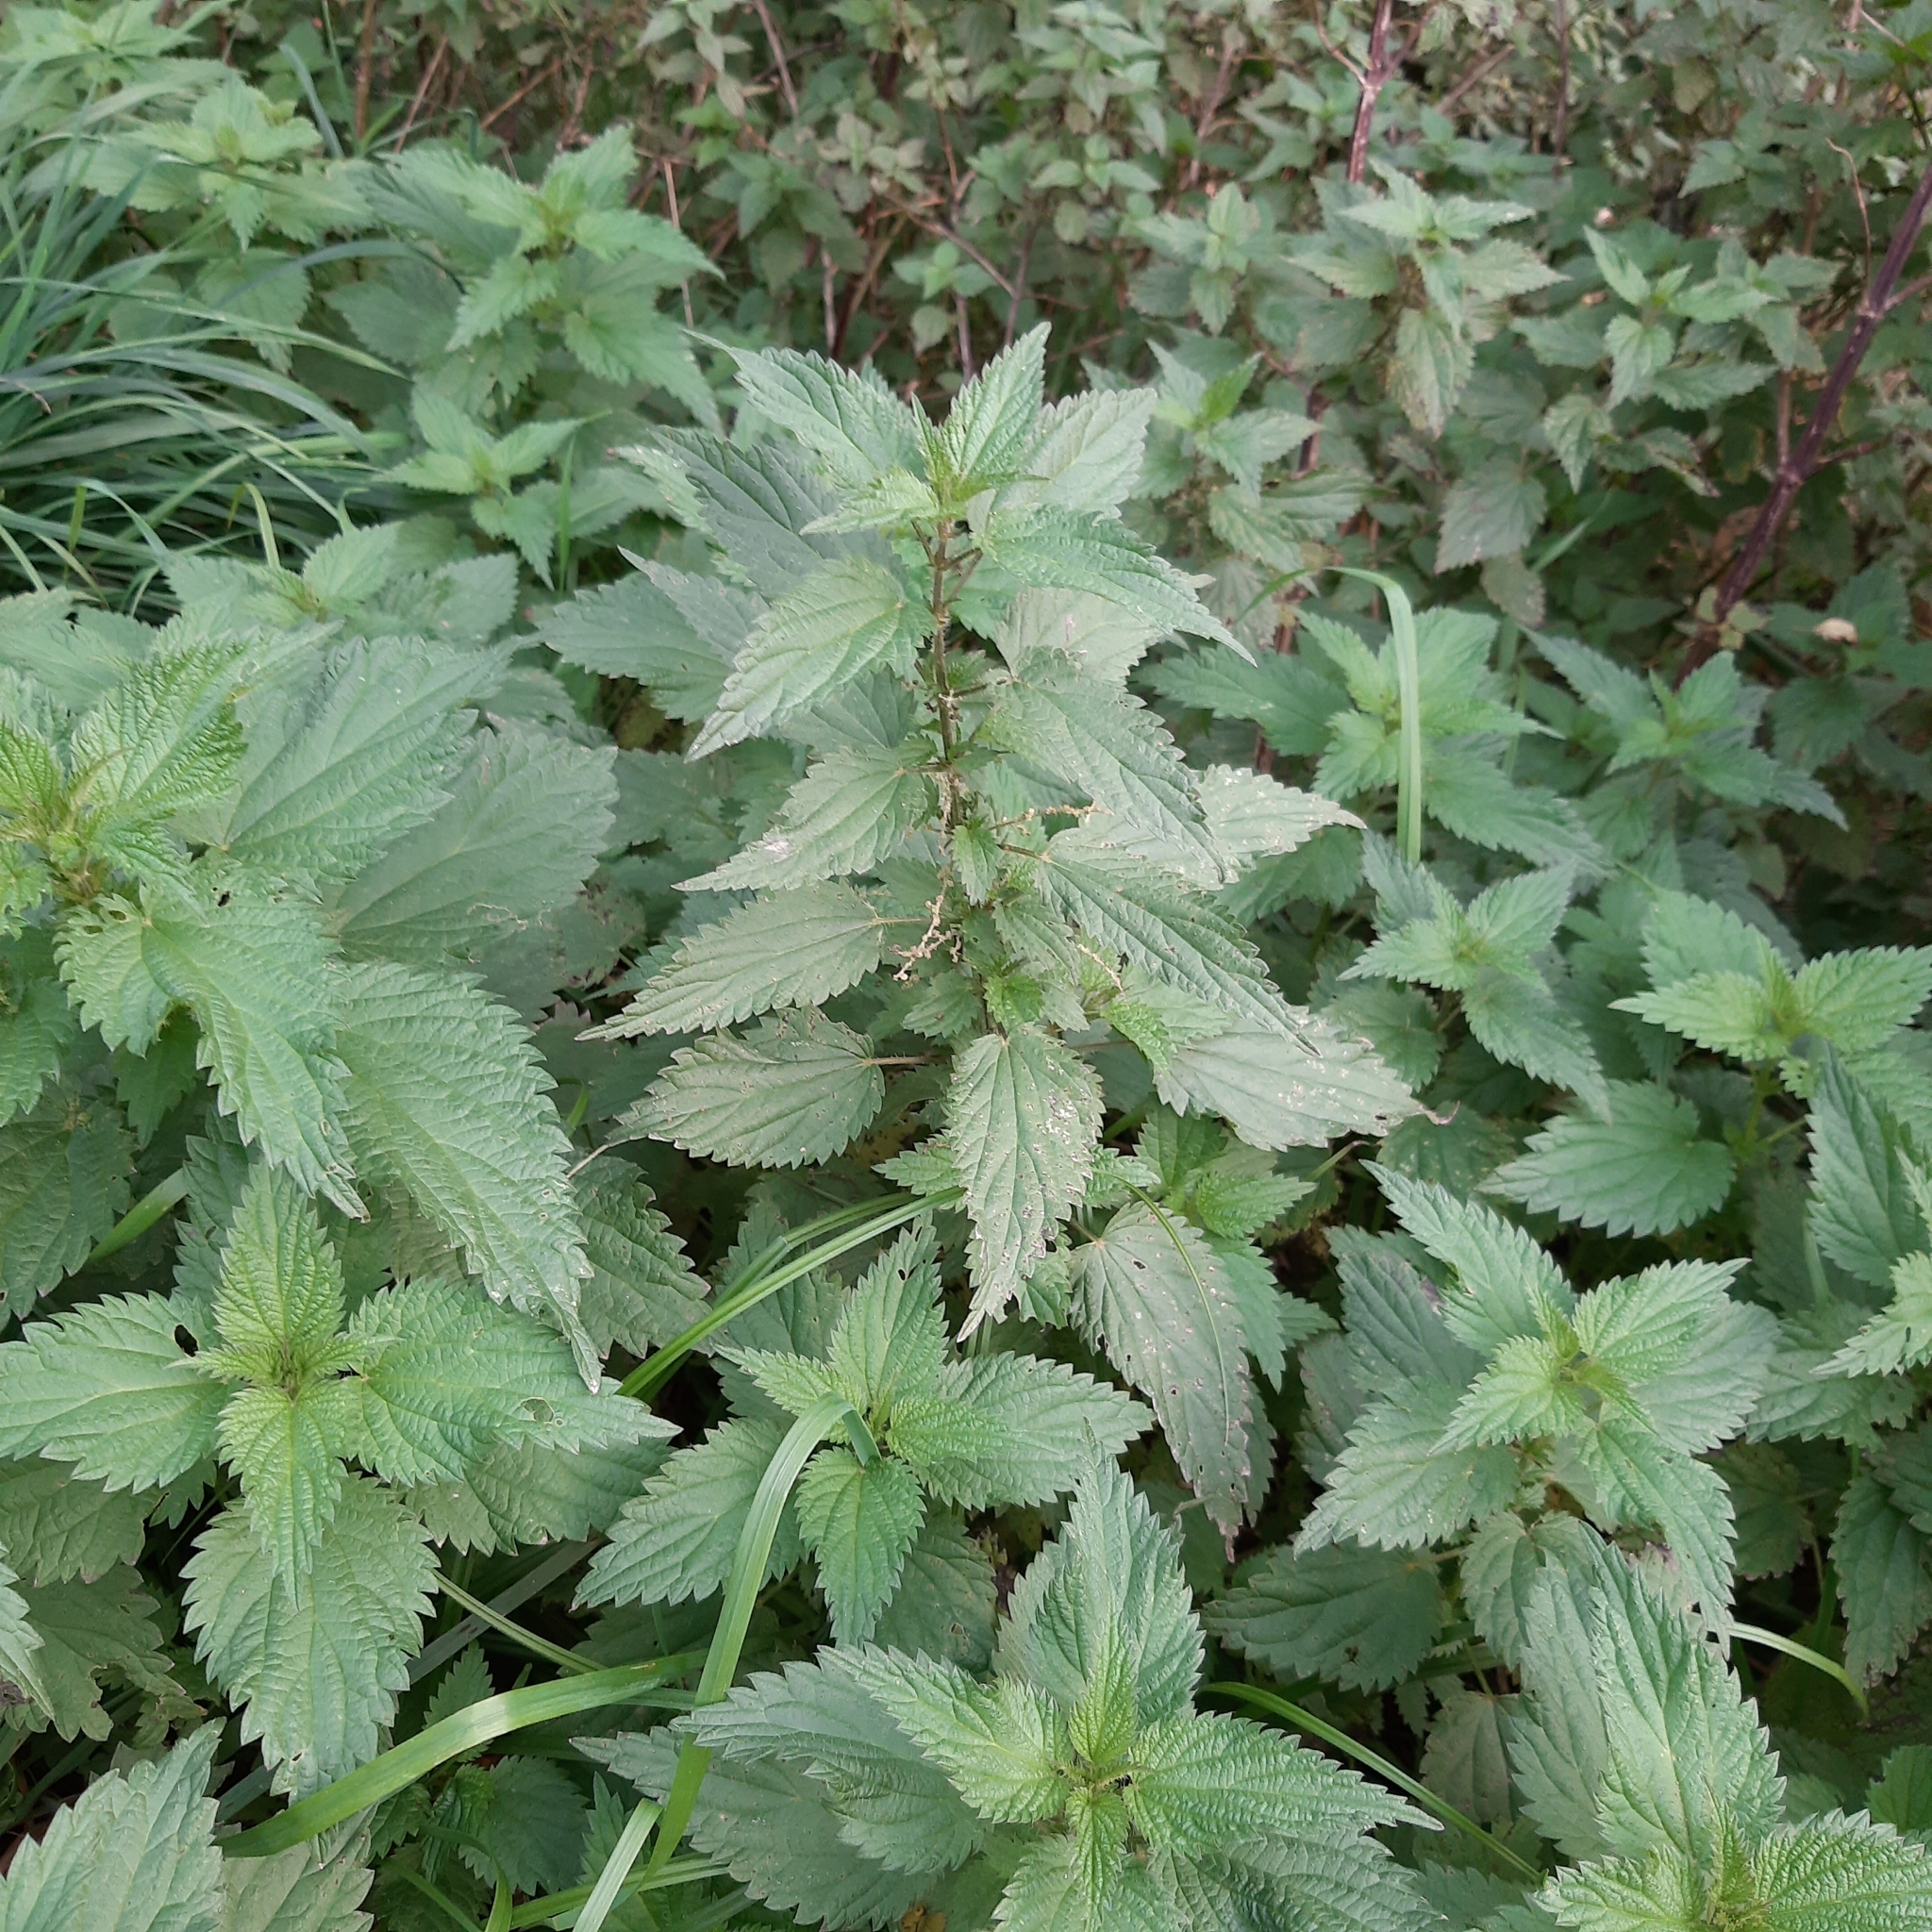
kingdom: Plantae
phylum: Tracheophyta
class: Magnoliopsida
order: Rosales
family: Urticaceae
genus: Urtica
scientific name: Urtica dioica
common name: Common nettle
